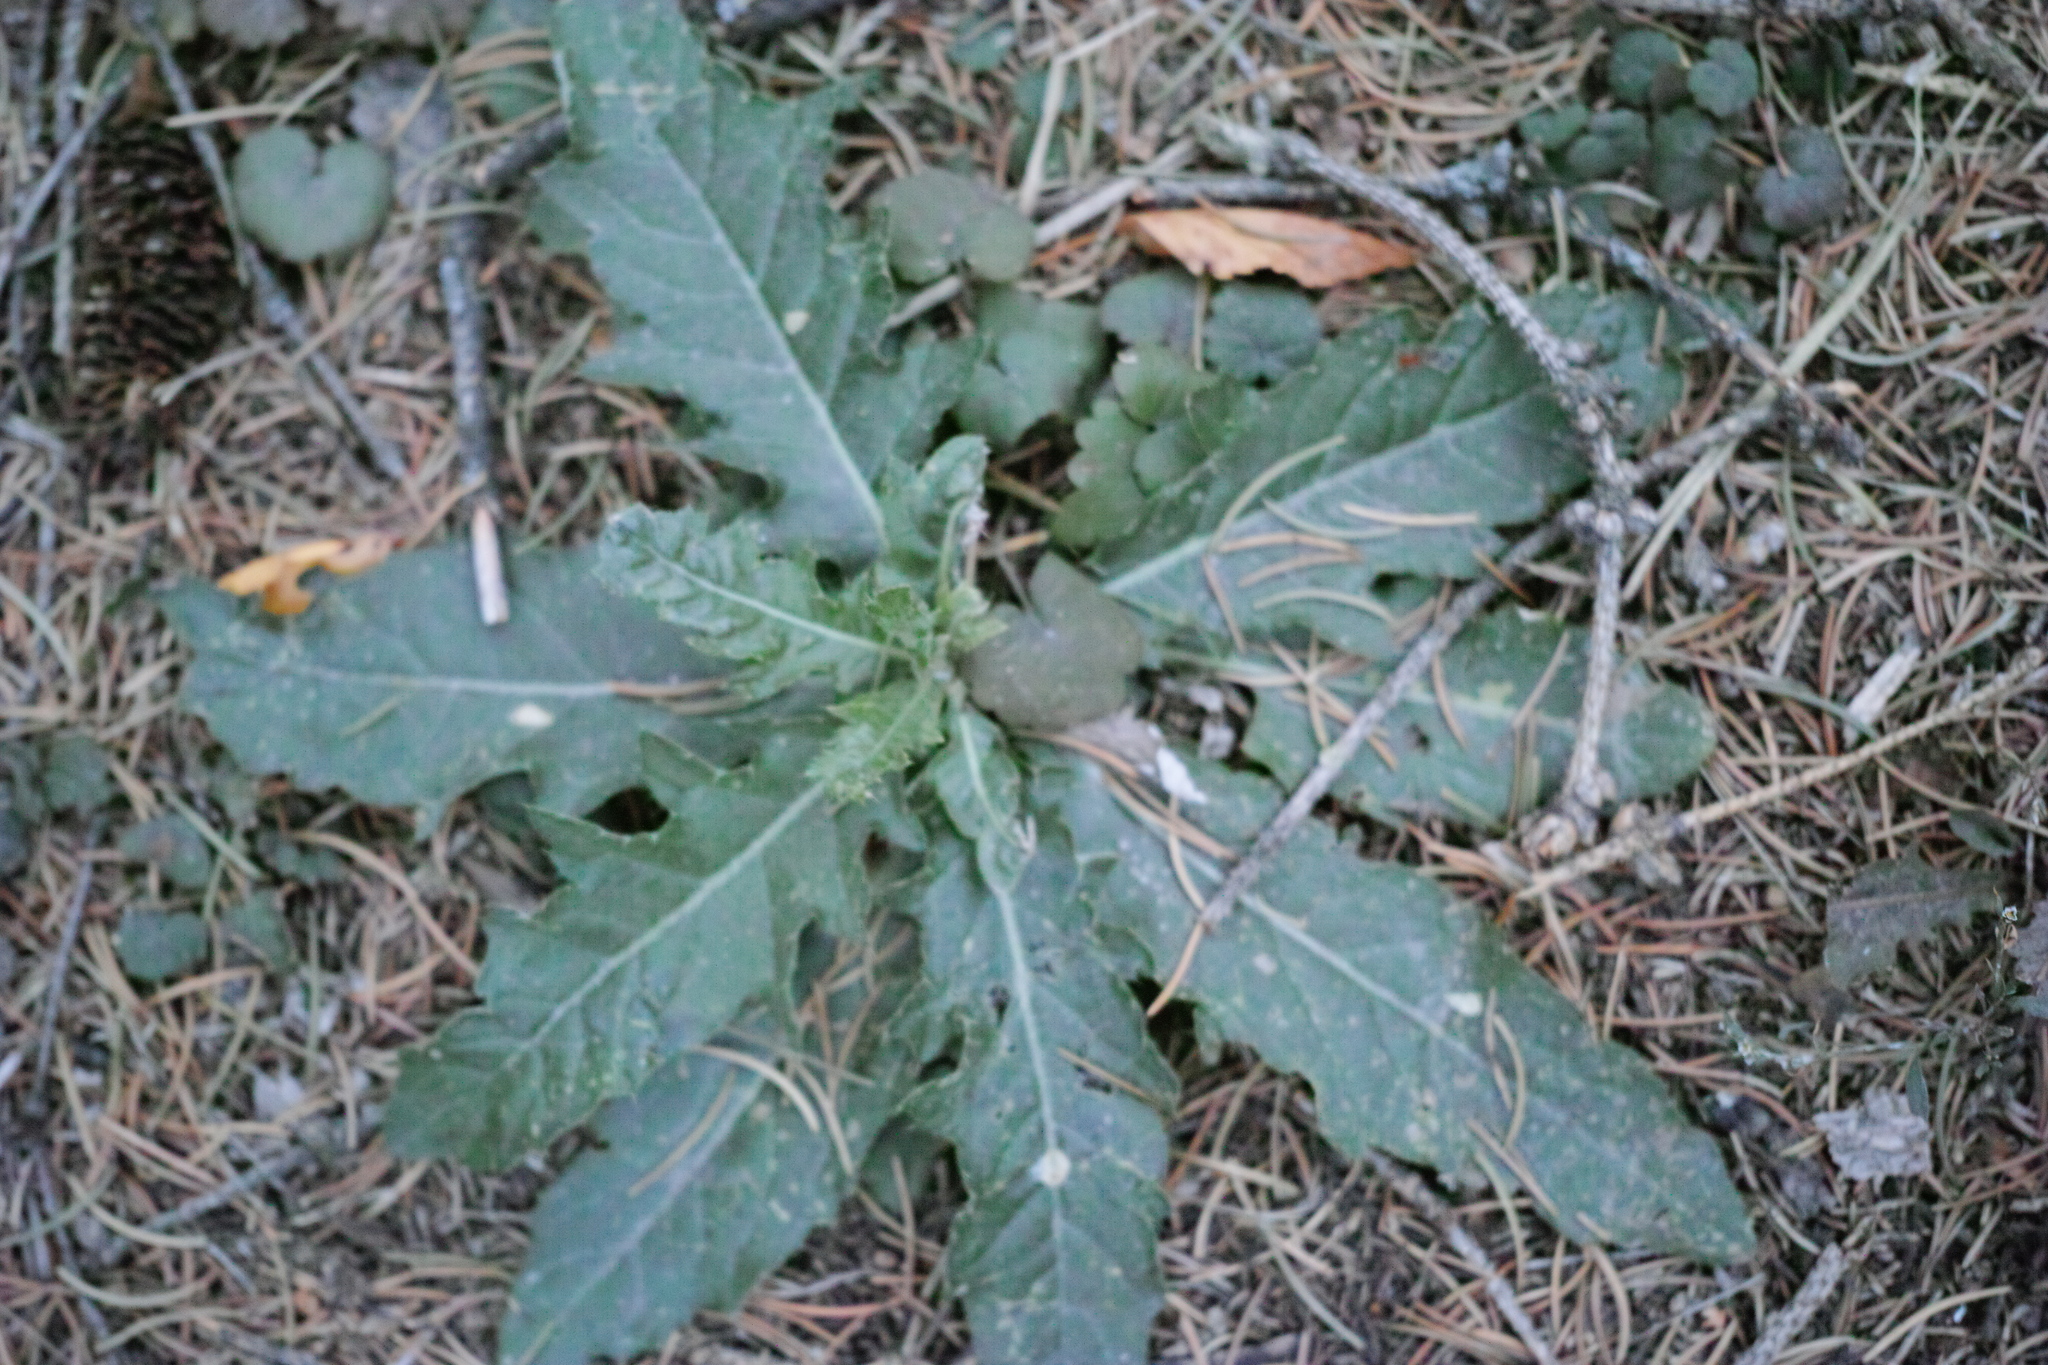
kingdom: Plantae
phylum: Tracheophyta
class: Magnoliopsida
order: Asterales
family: Asteraceae
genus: Cirsium
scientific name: Cirsium arvense
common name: Creeping thistle
